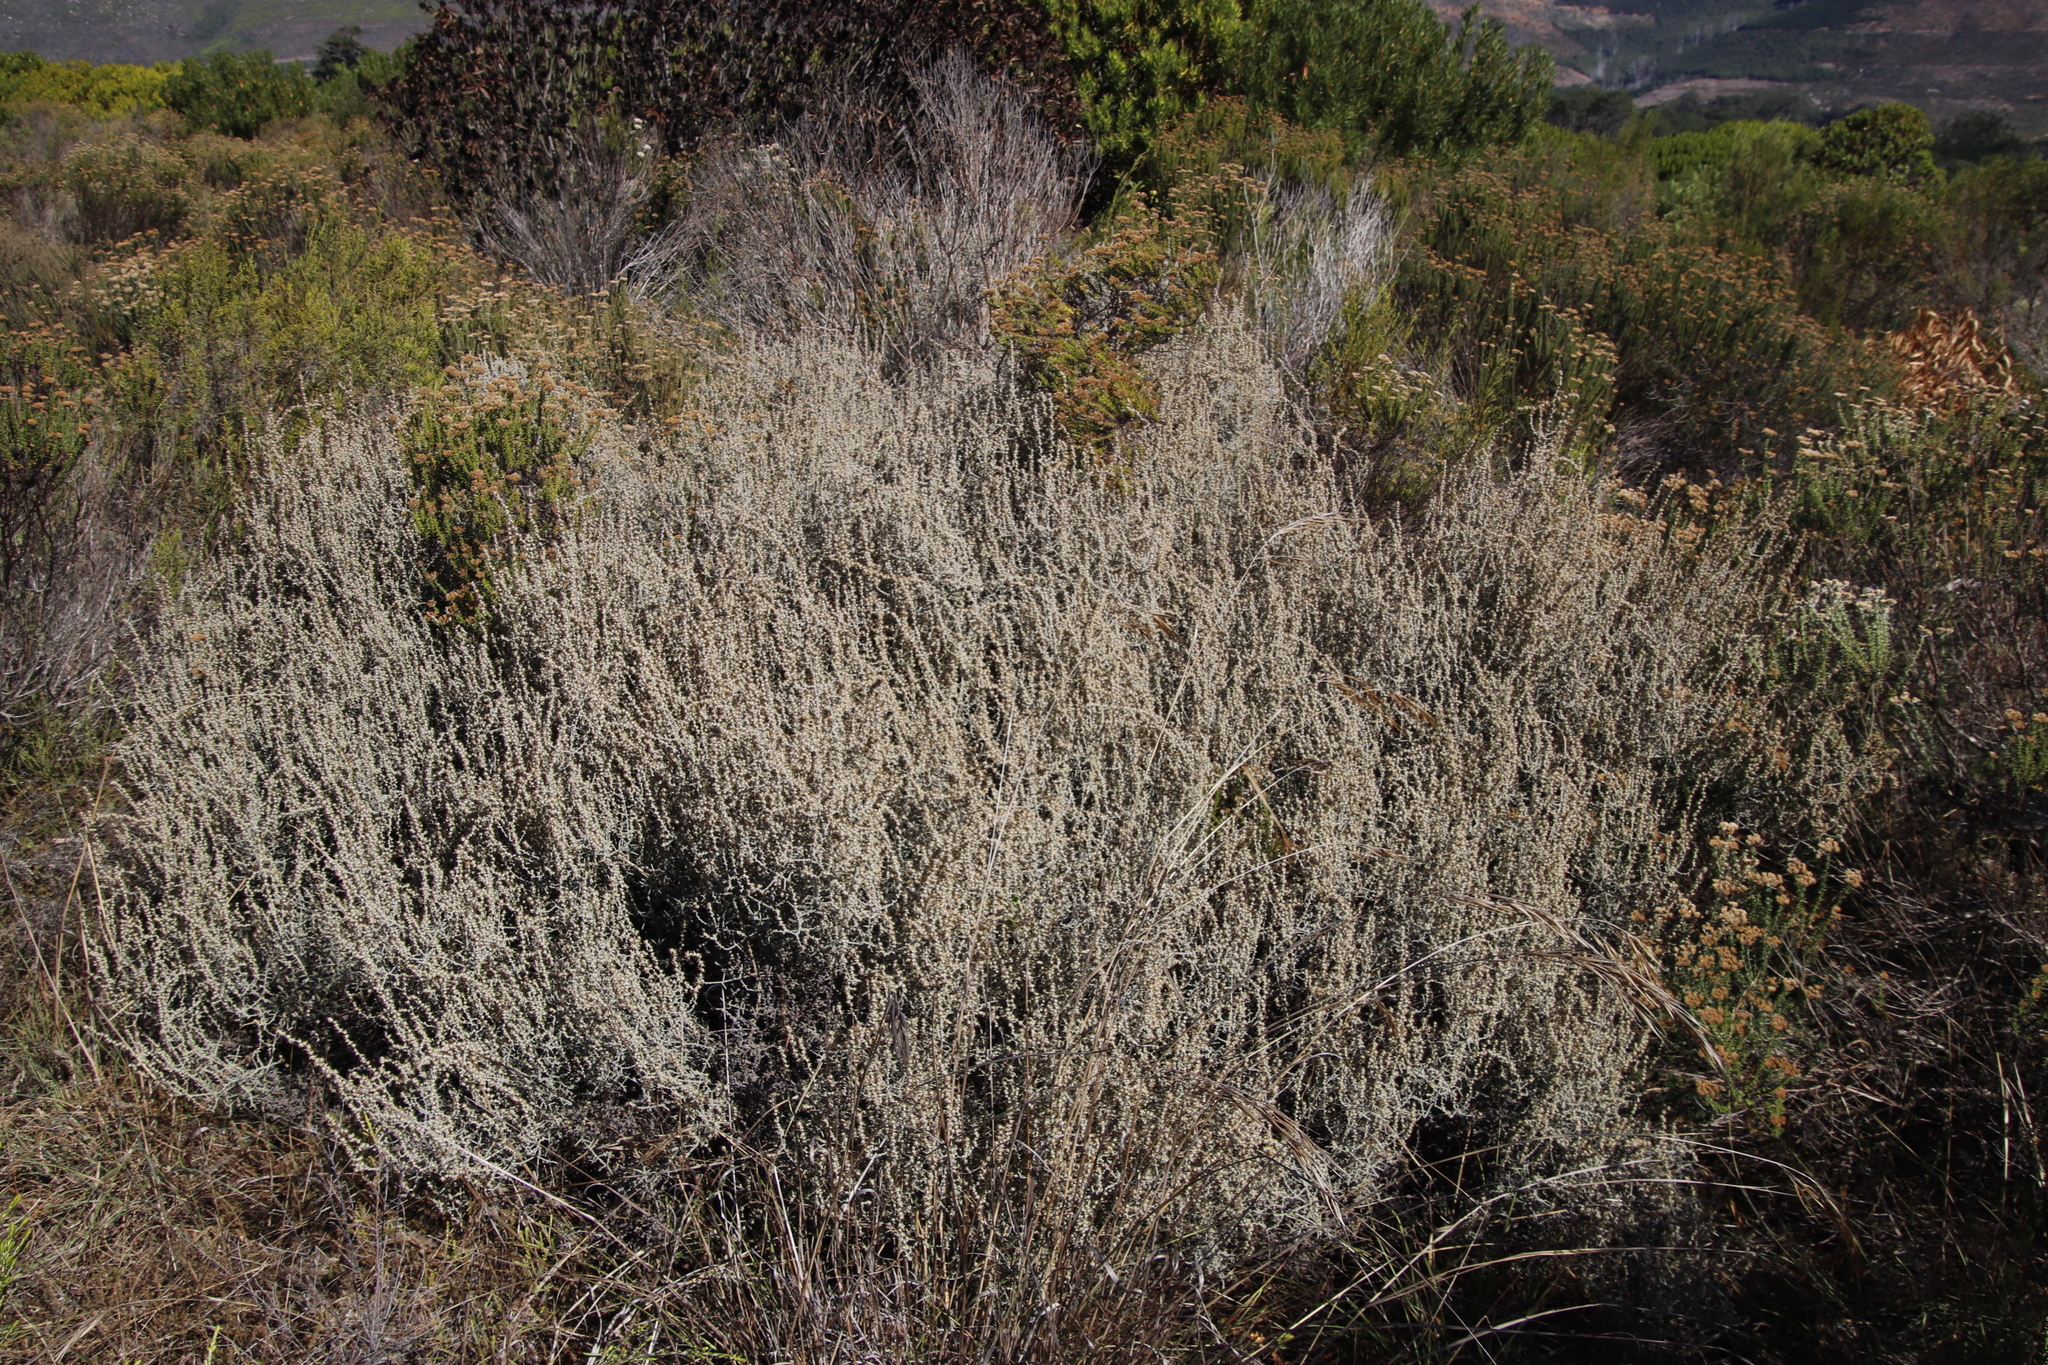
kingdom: Plantae
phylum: Tracheophyta
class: Magnoliopsida
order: Asterales
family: Asteraceae
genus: Seriphium
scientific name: Seriphium plumosum
